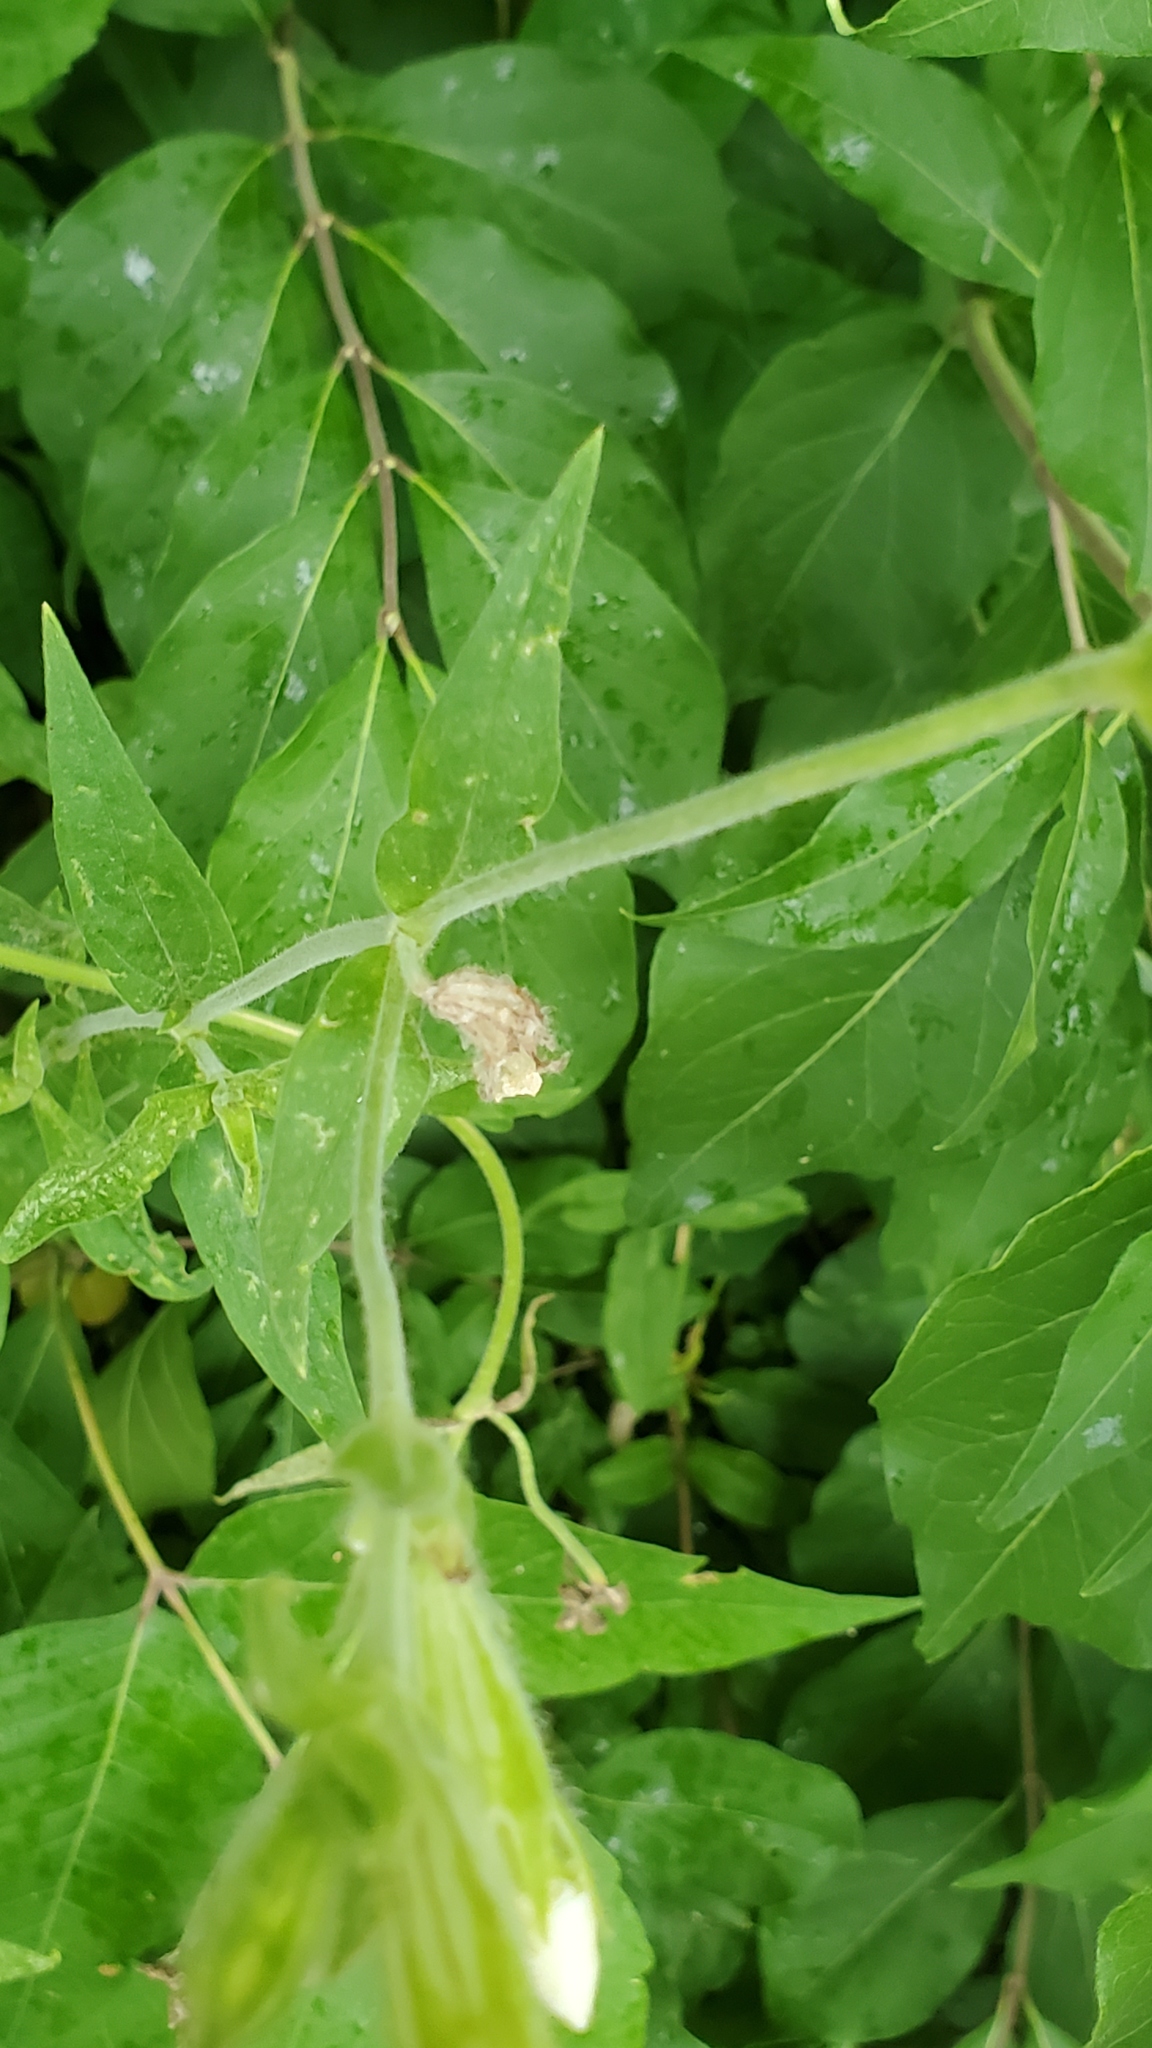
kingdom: Plantae
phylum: Tracheophyta
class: Magnoliopsida
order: Caryophyllales
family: Caryophyllaceae
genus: Silene
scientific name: Silene latifolia
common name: White campion
